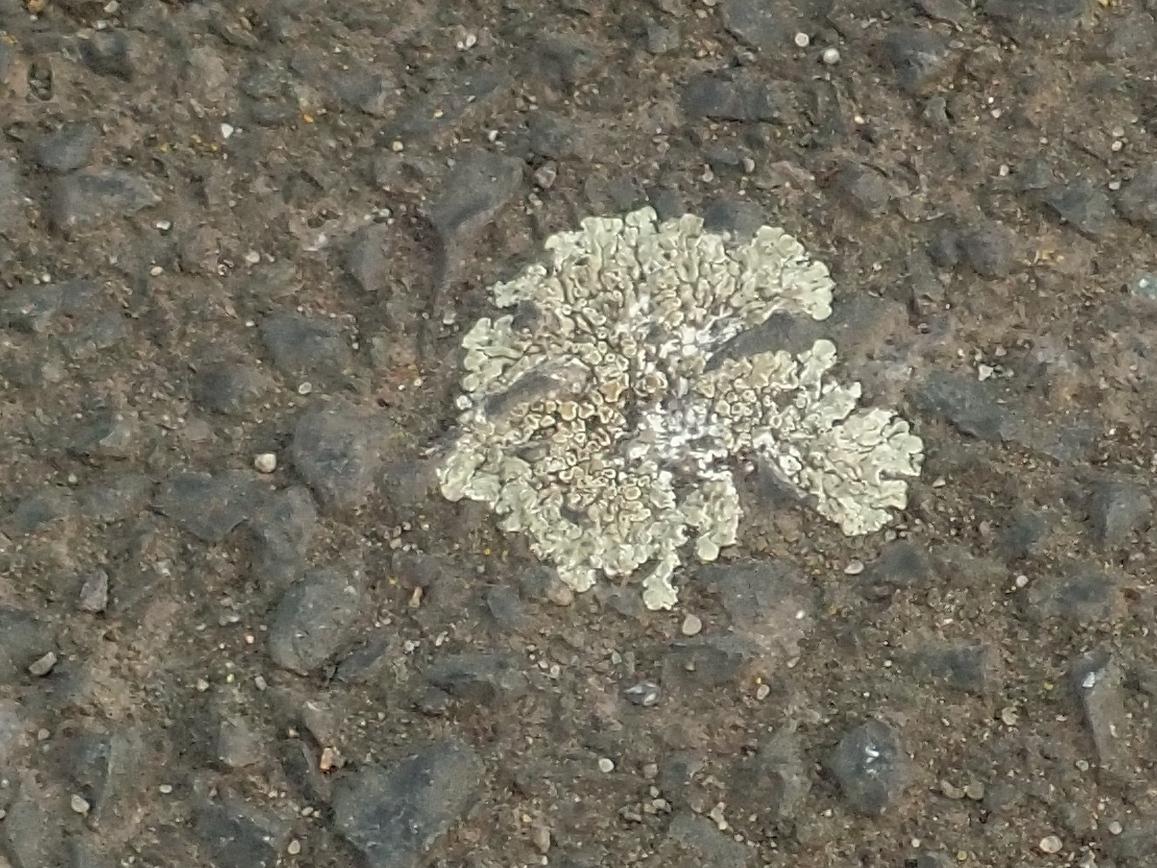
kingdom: Fungi
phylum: Ascomycota
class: Lecanoromycetes
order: Lecanorales
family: Lecanoraceae
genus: Protoparmeliopsis
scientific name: Protoparmeliopsis muralis
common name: Stonewall rim lichen
